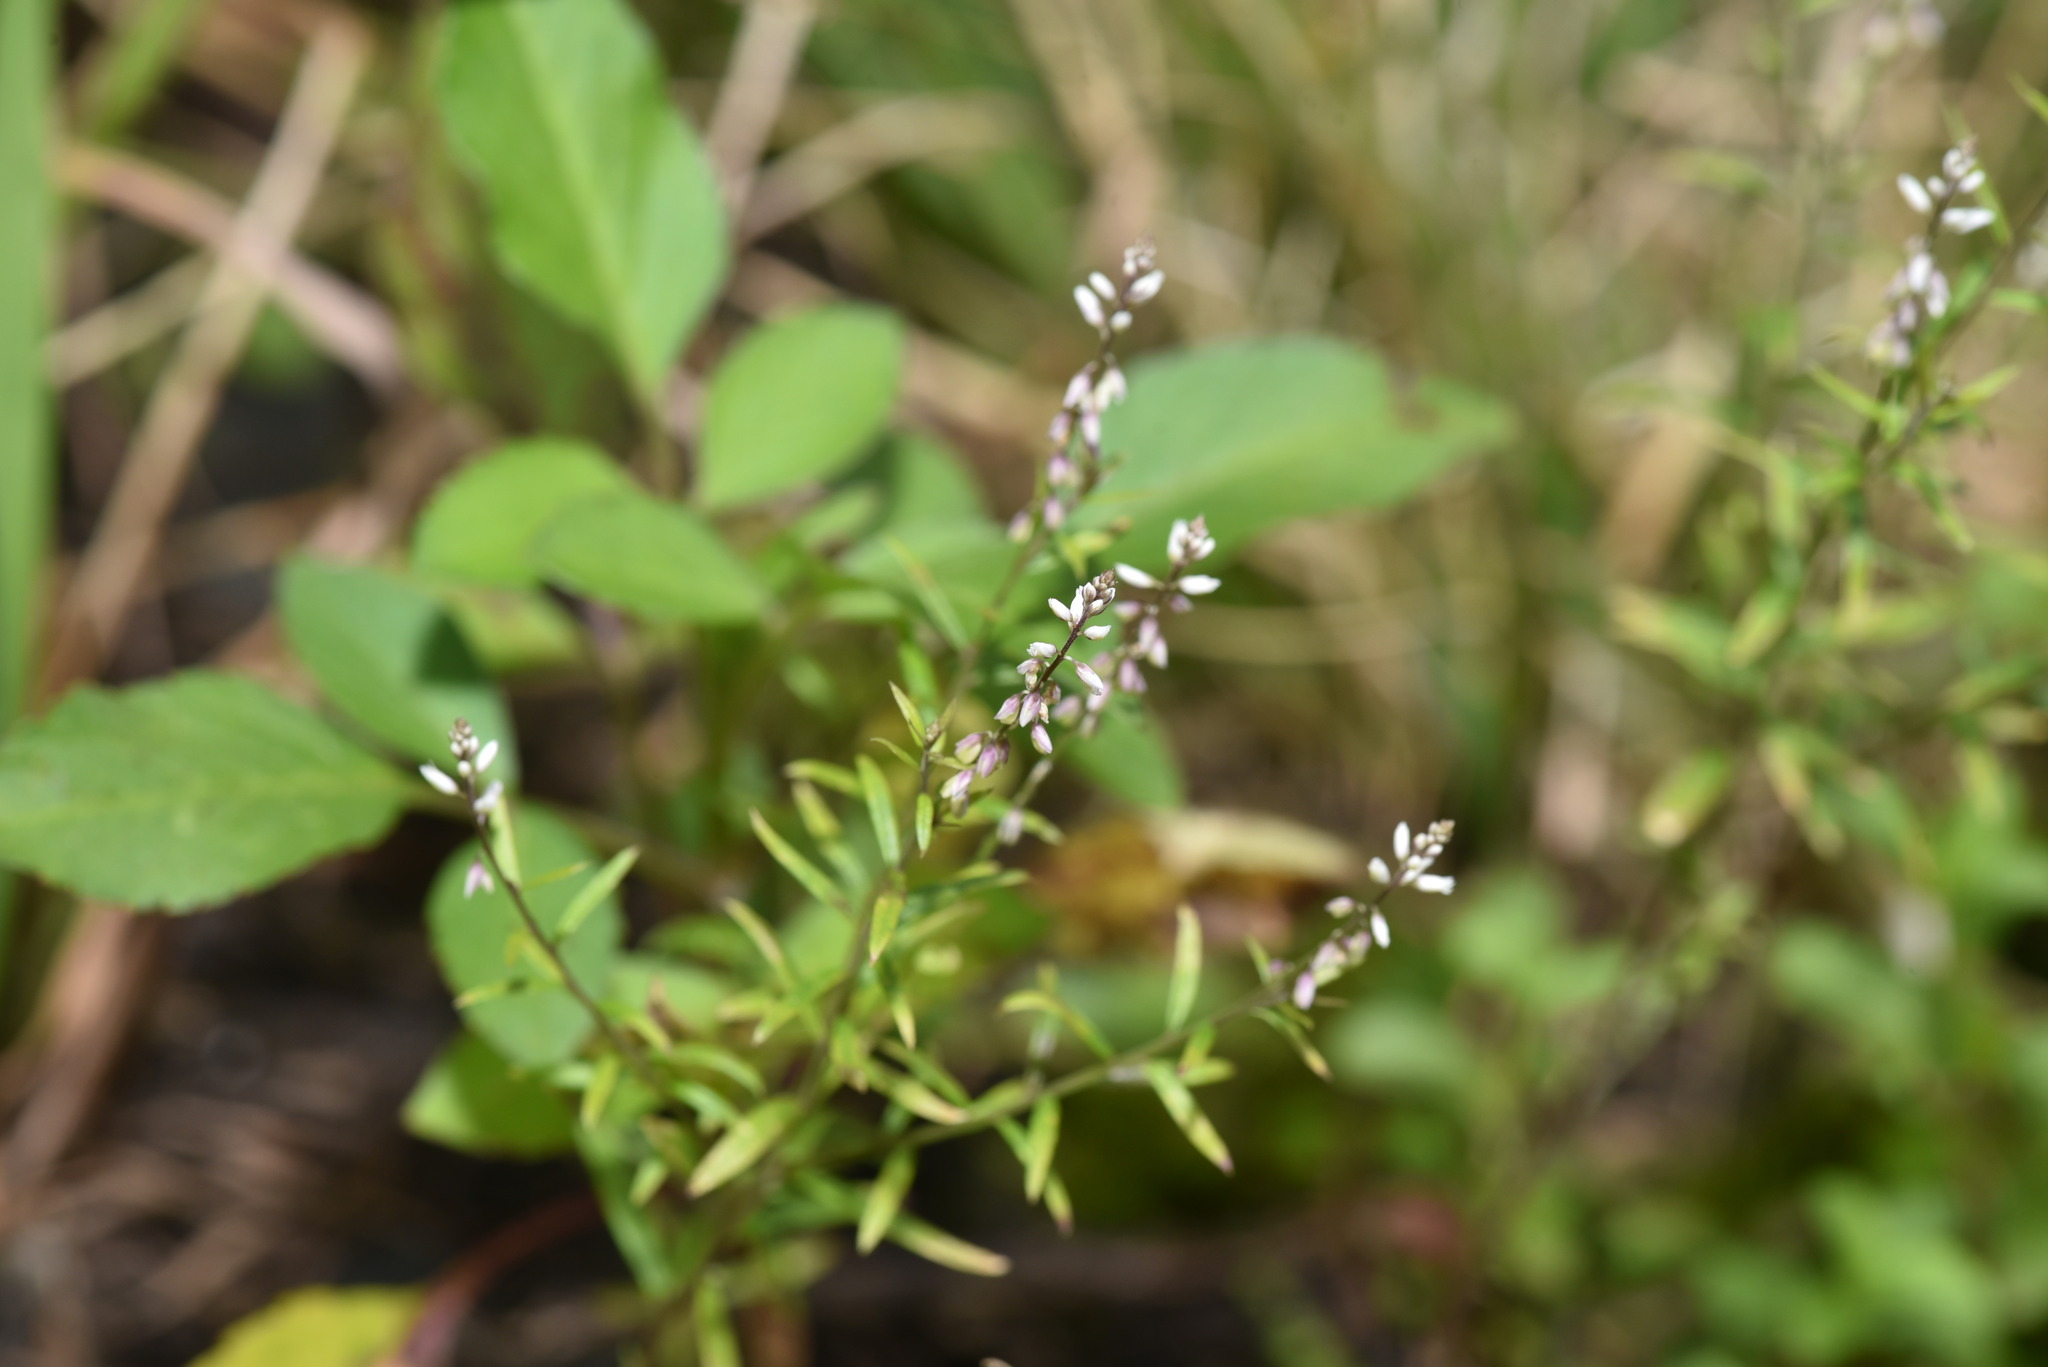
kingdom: Plantae
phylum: Tracheophyta
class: Magnoliopsida
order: Fabales
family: Polygalaceae
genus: Polygala
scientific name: Polygala paniculata
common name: Orosne
